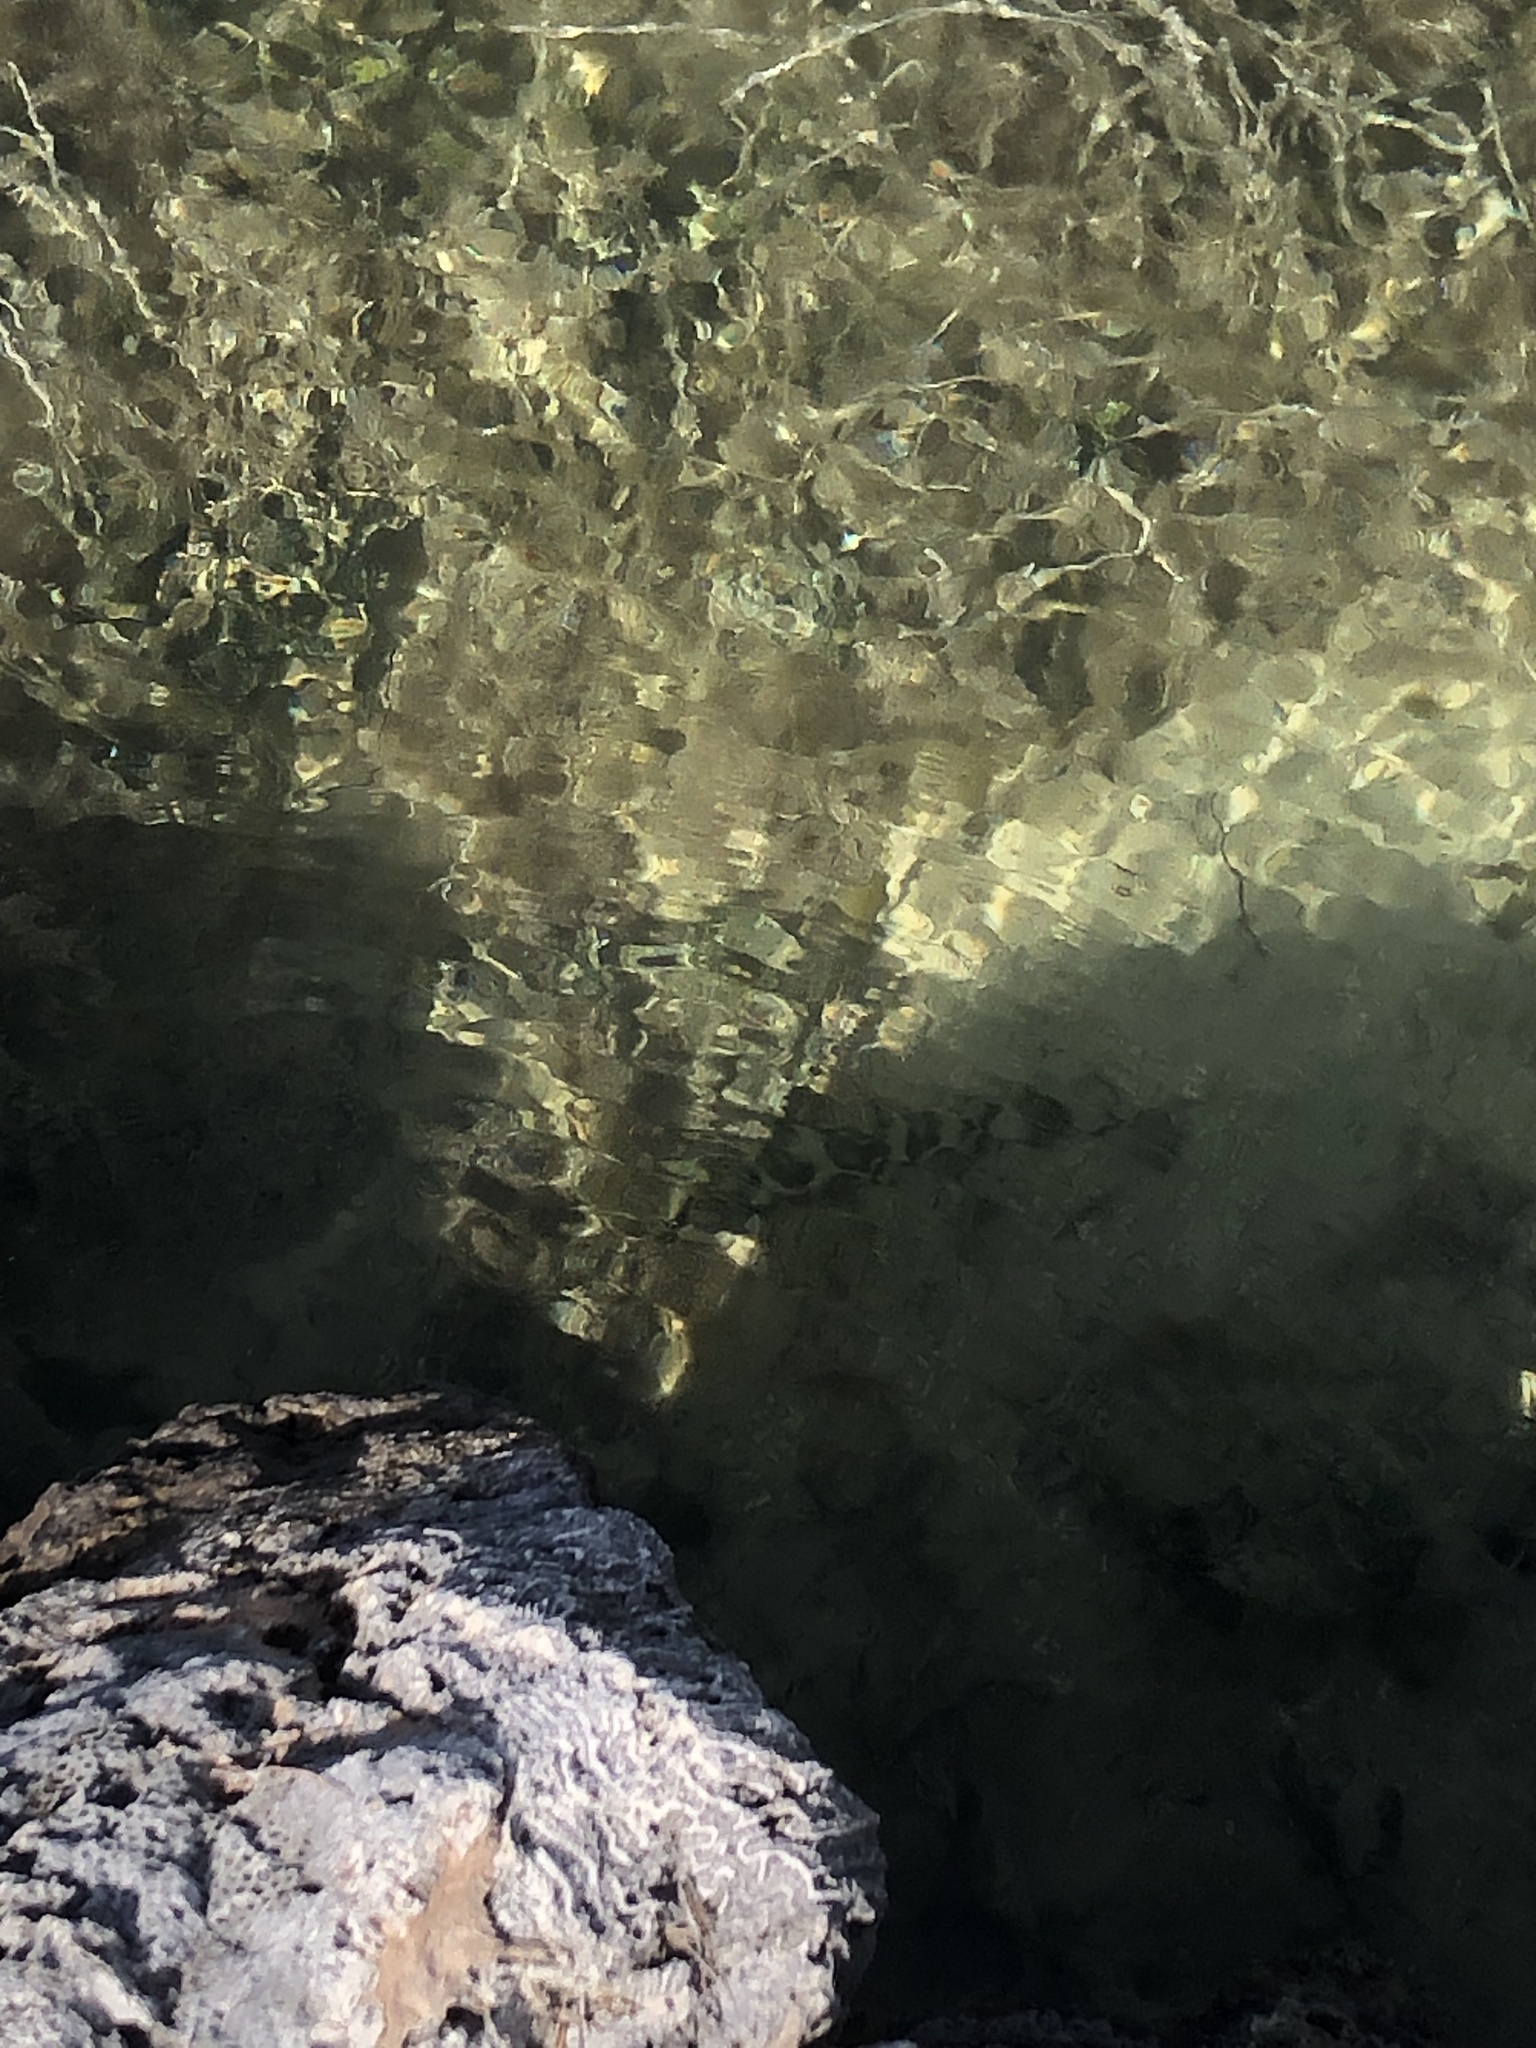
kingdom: Animalia
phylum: Chordata
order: Perciformes
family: Sphyraenidae
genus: Sphyraena
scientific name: Sphyraena barracuda
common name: Great barracuda
